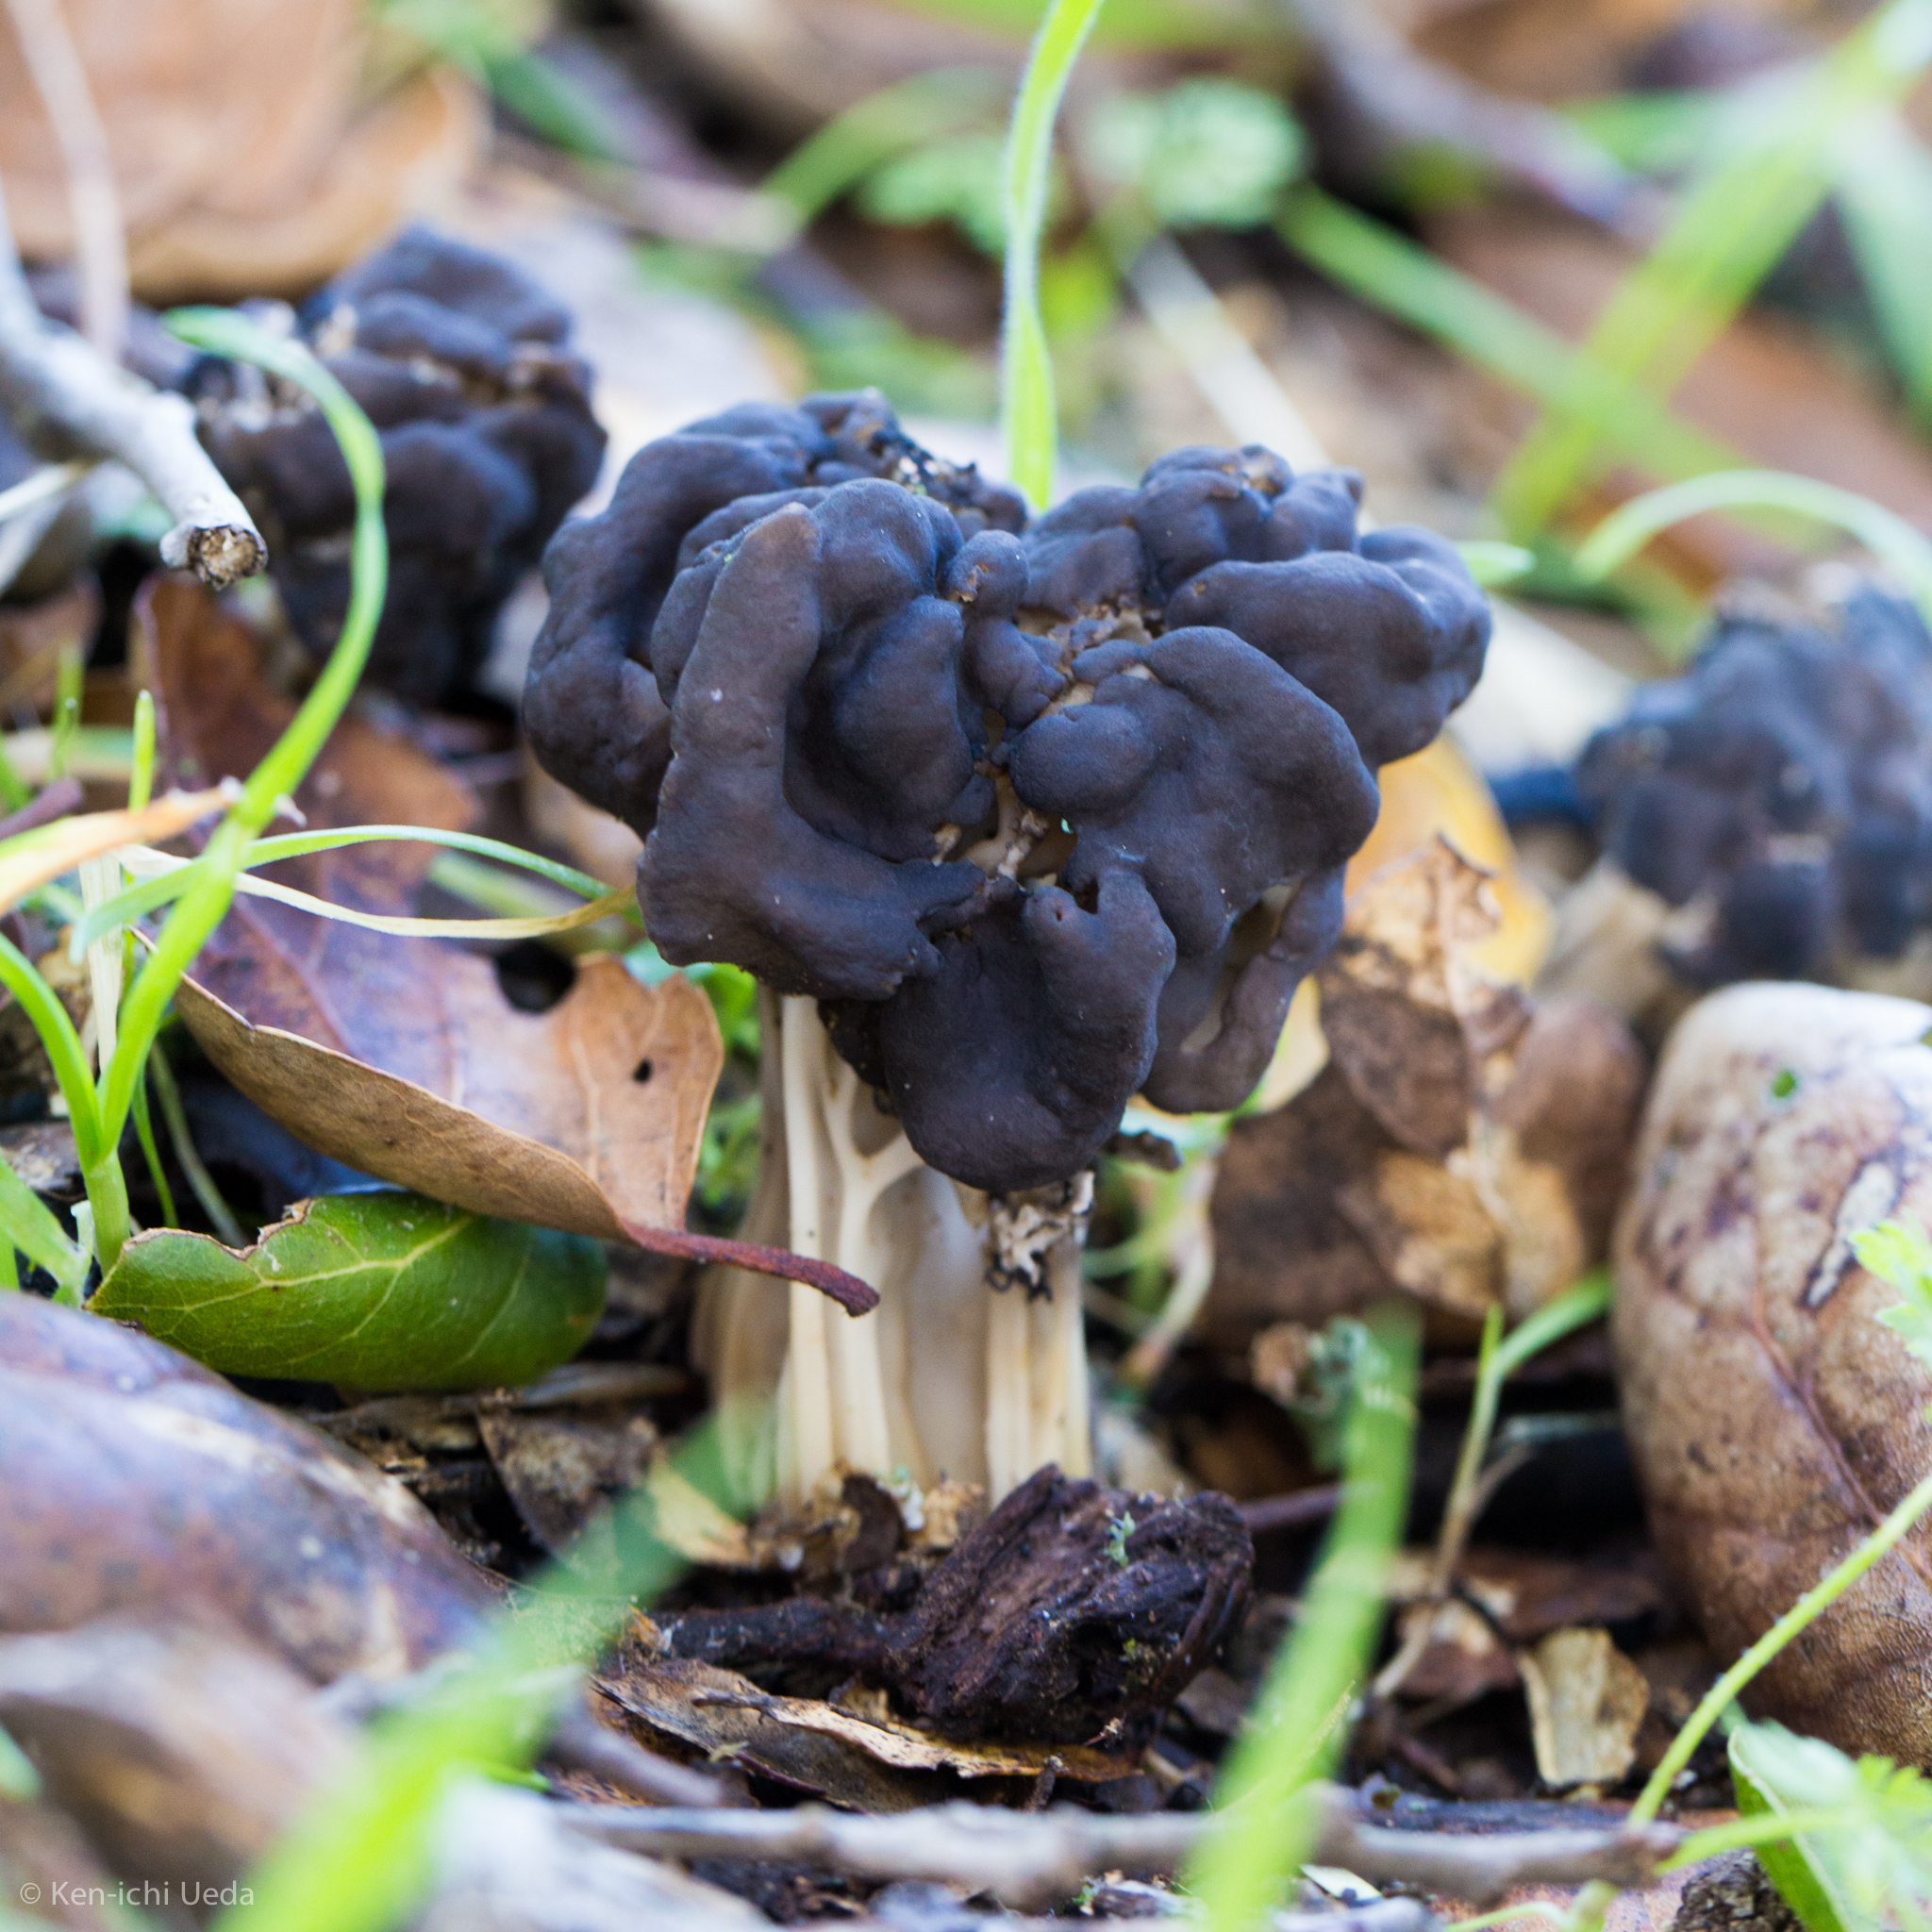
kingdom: Fungi
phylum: Ascomycota
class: Pezizomycetes
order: Pezizales
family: Helvellaceae
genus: Helvella
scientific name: Helvella dryophila
